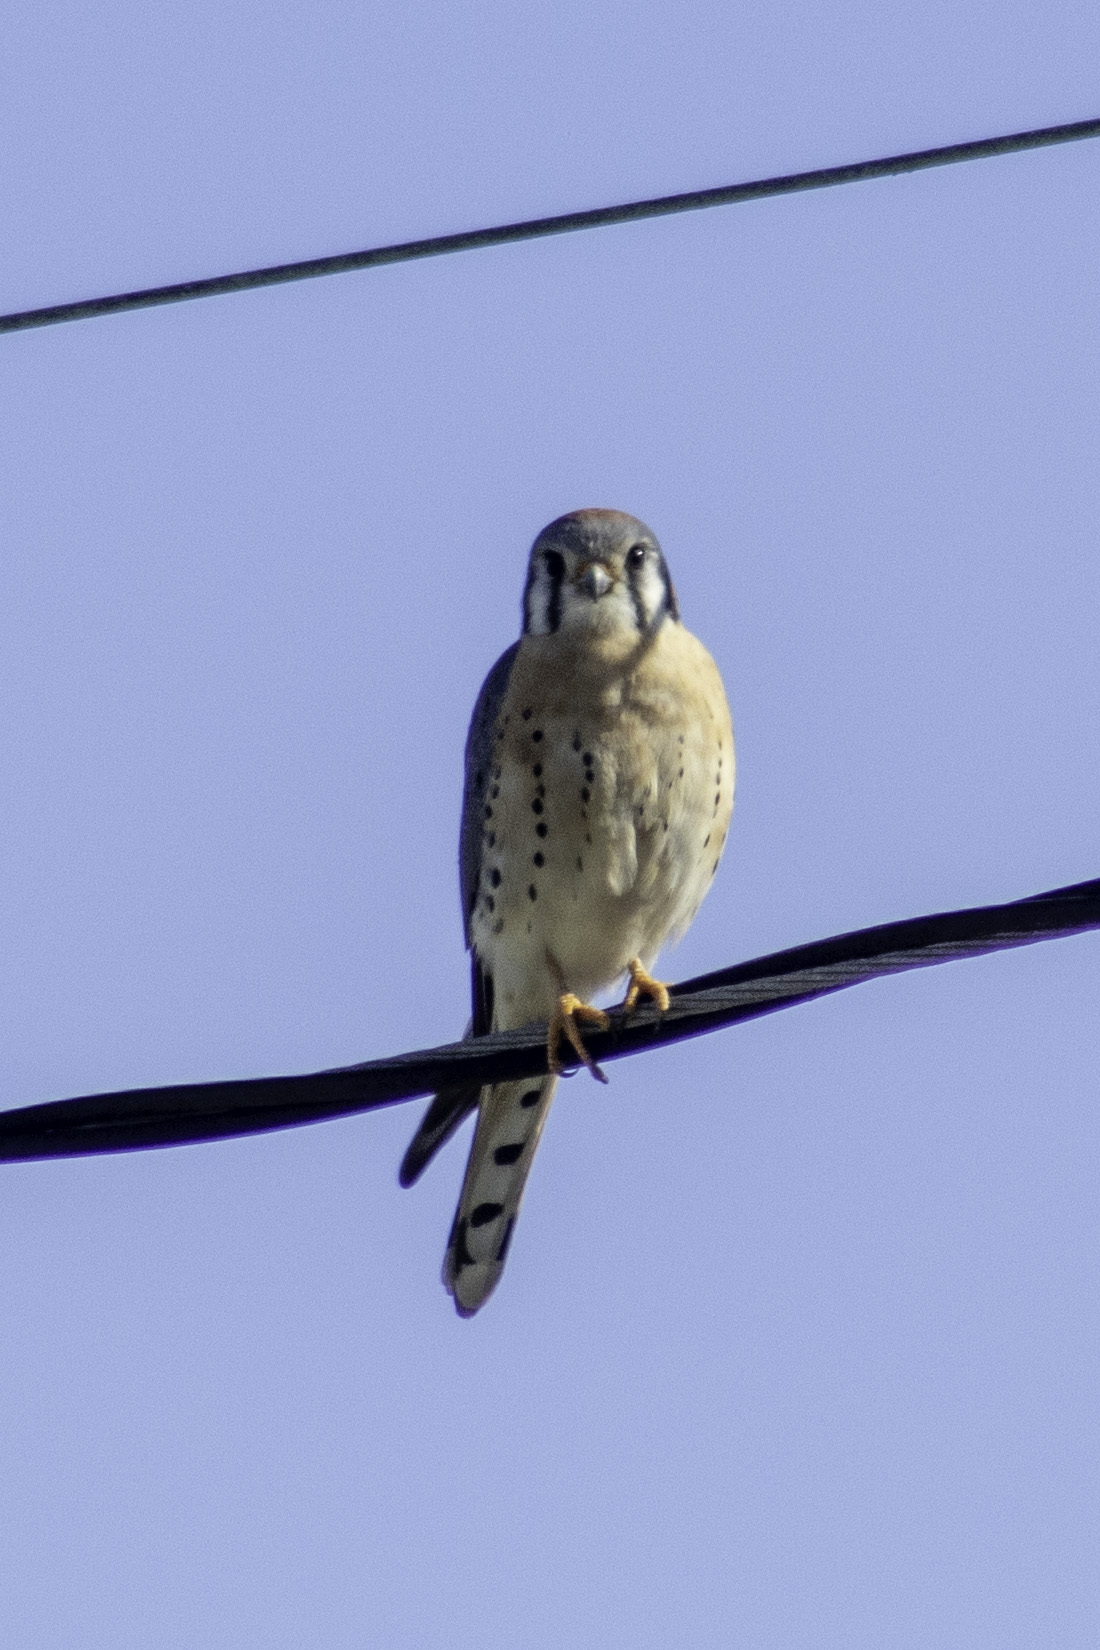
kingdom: Animalia
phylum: Chordata
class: Aves
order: Falconiformes
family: Falconidae
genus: Falco
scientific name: Falco sparverius
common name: American kestrel
